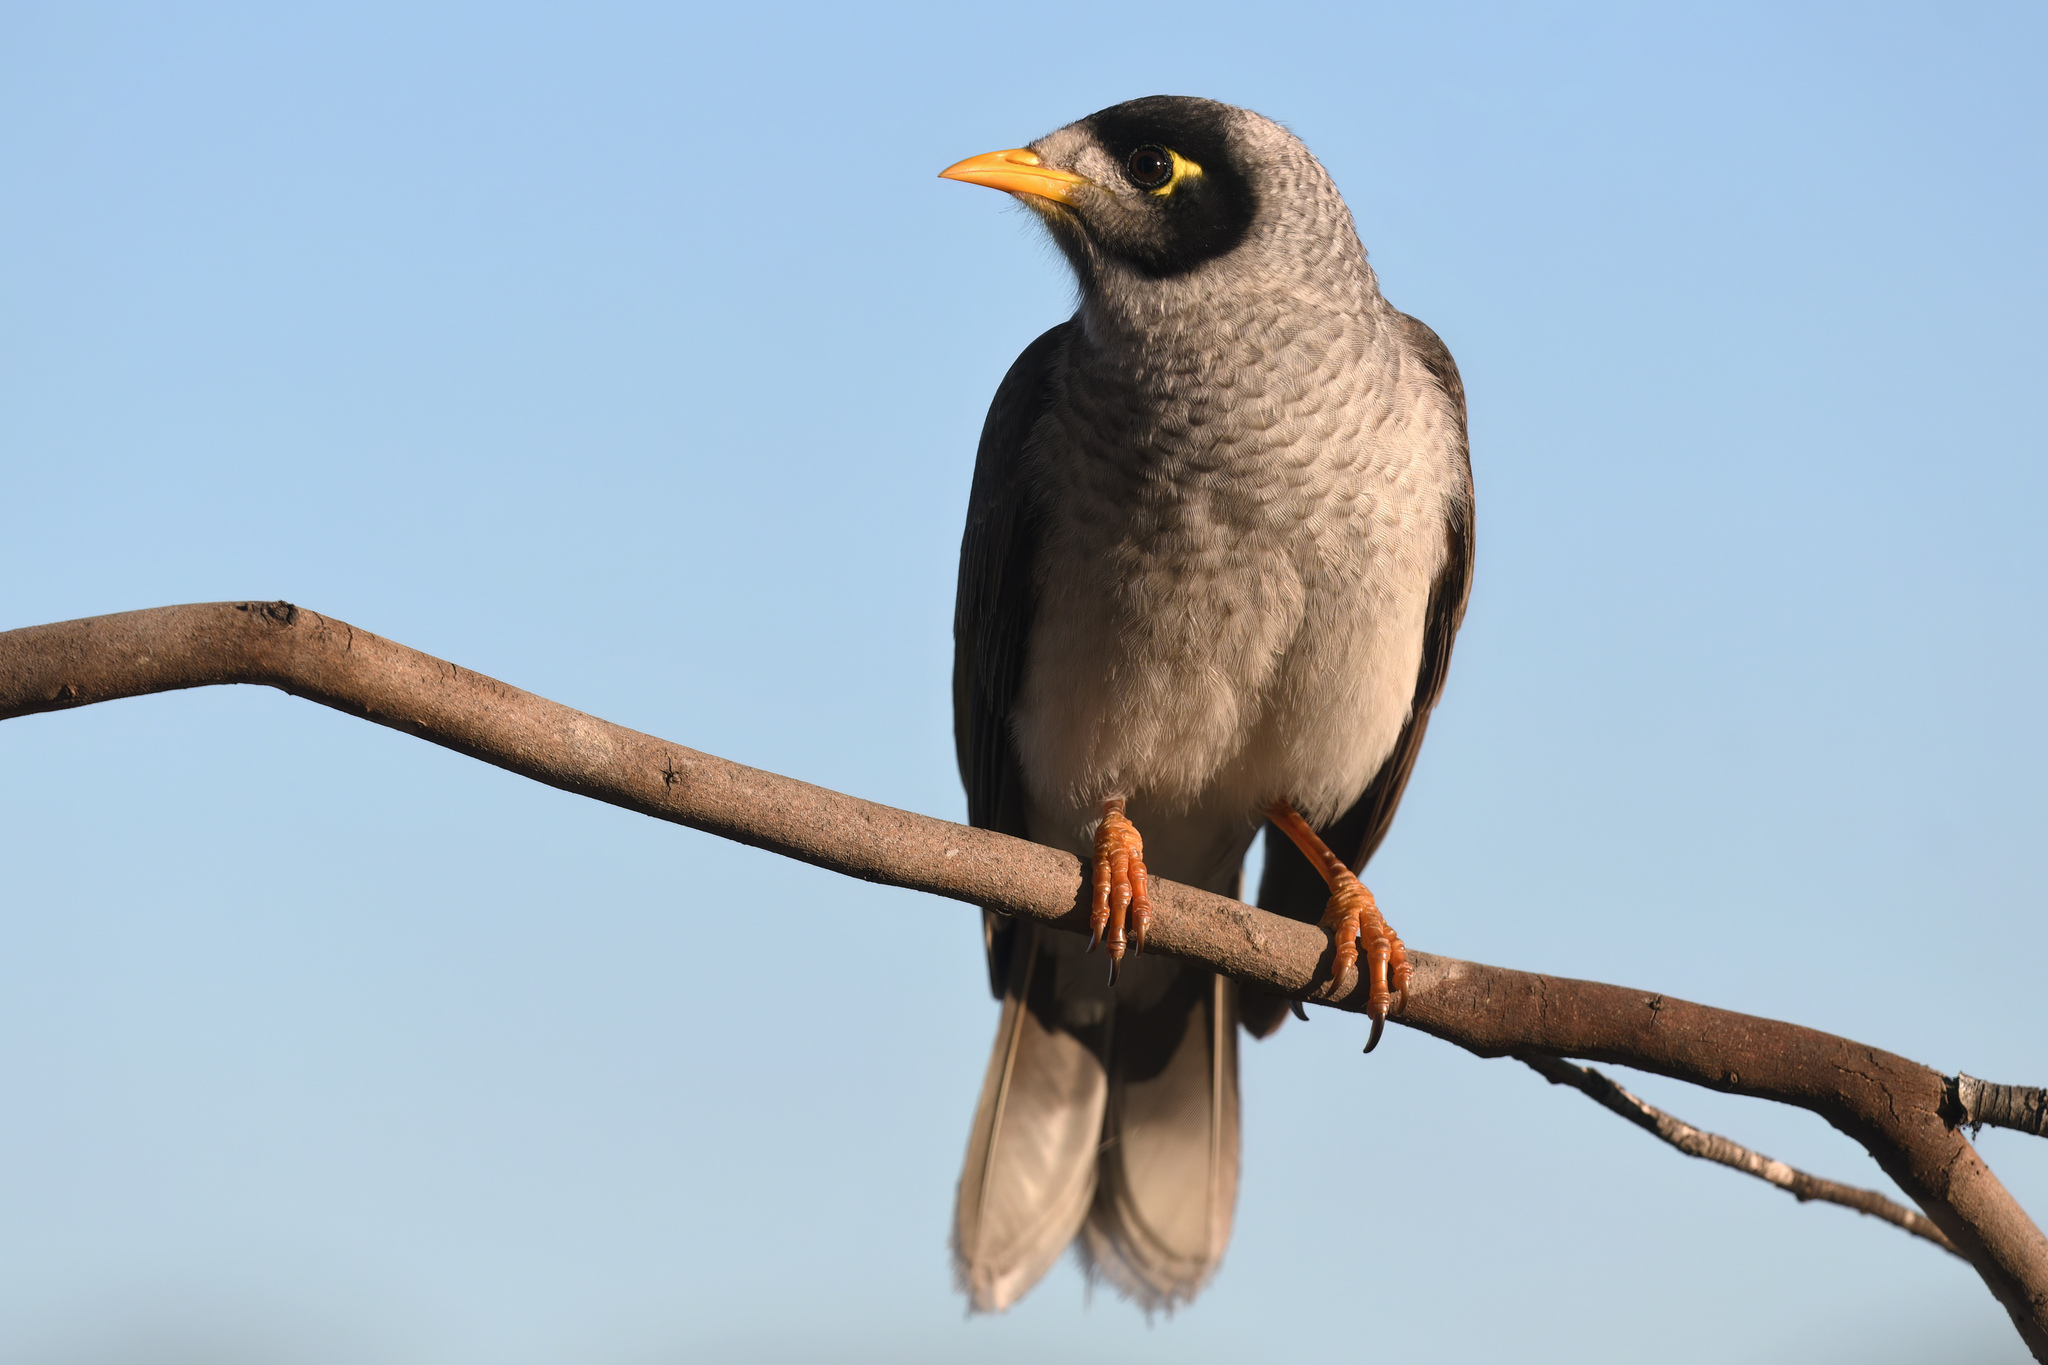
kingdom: Animalia
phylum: Chordata
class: Aves
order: Passeriformes
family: Meliphagidae
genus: Manorina
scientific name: Manorina melanocephala
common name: Noisy miner
